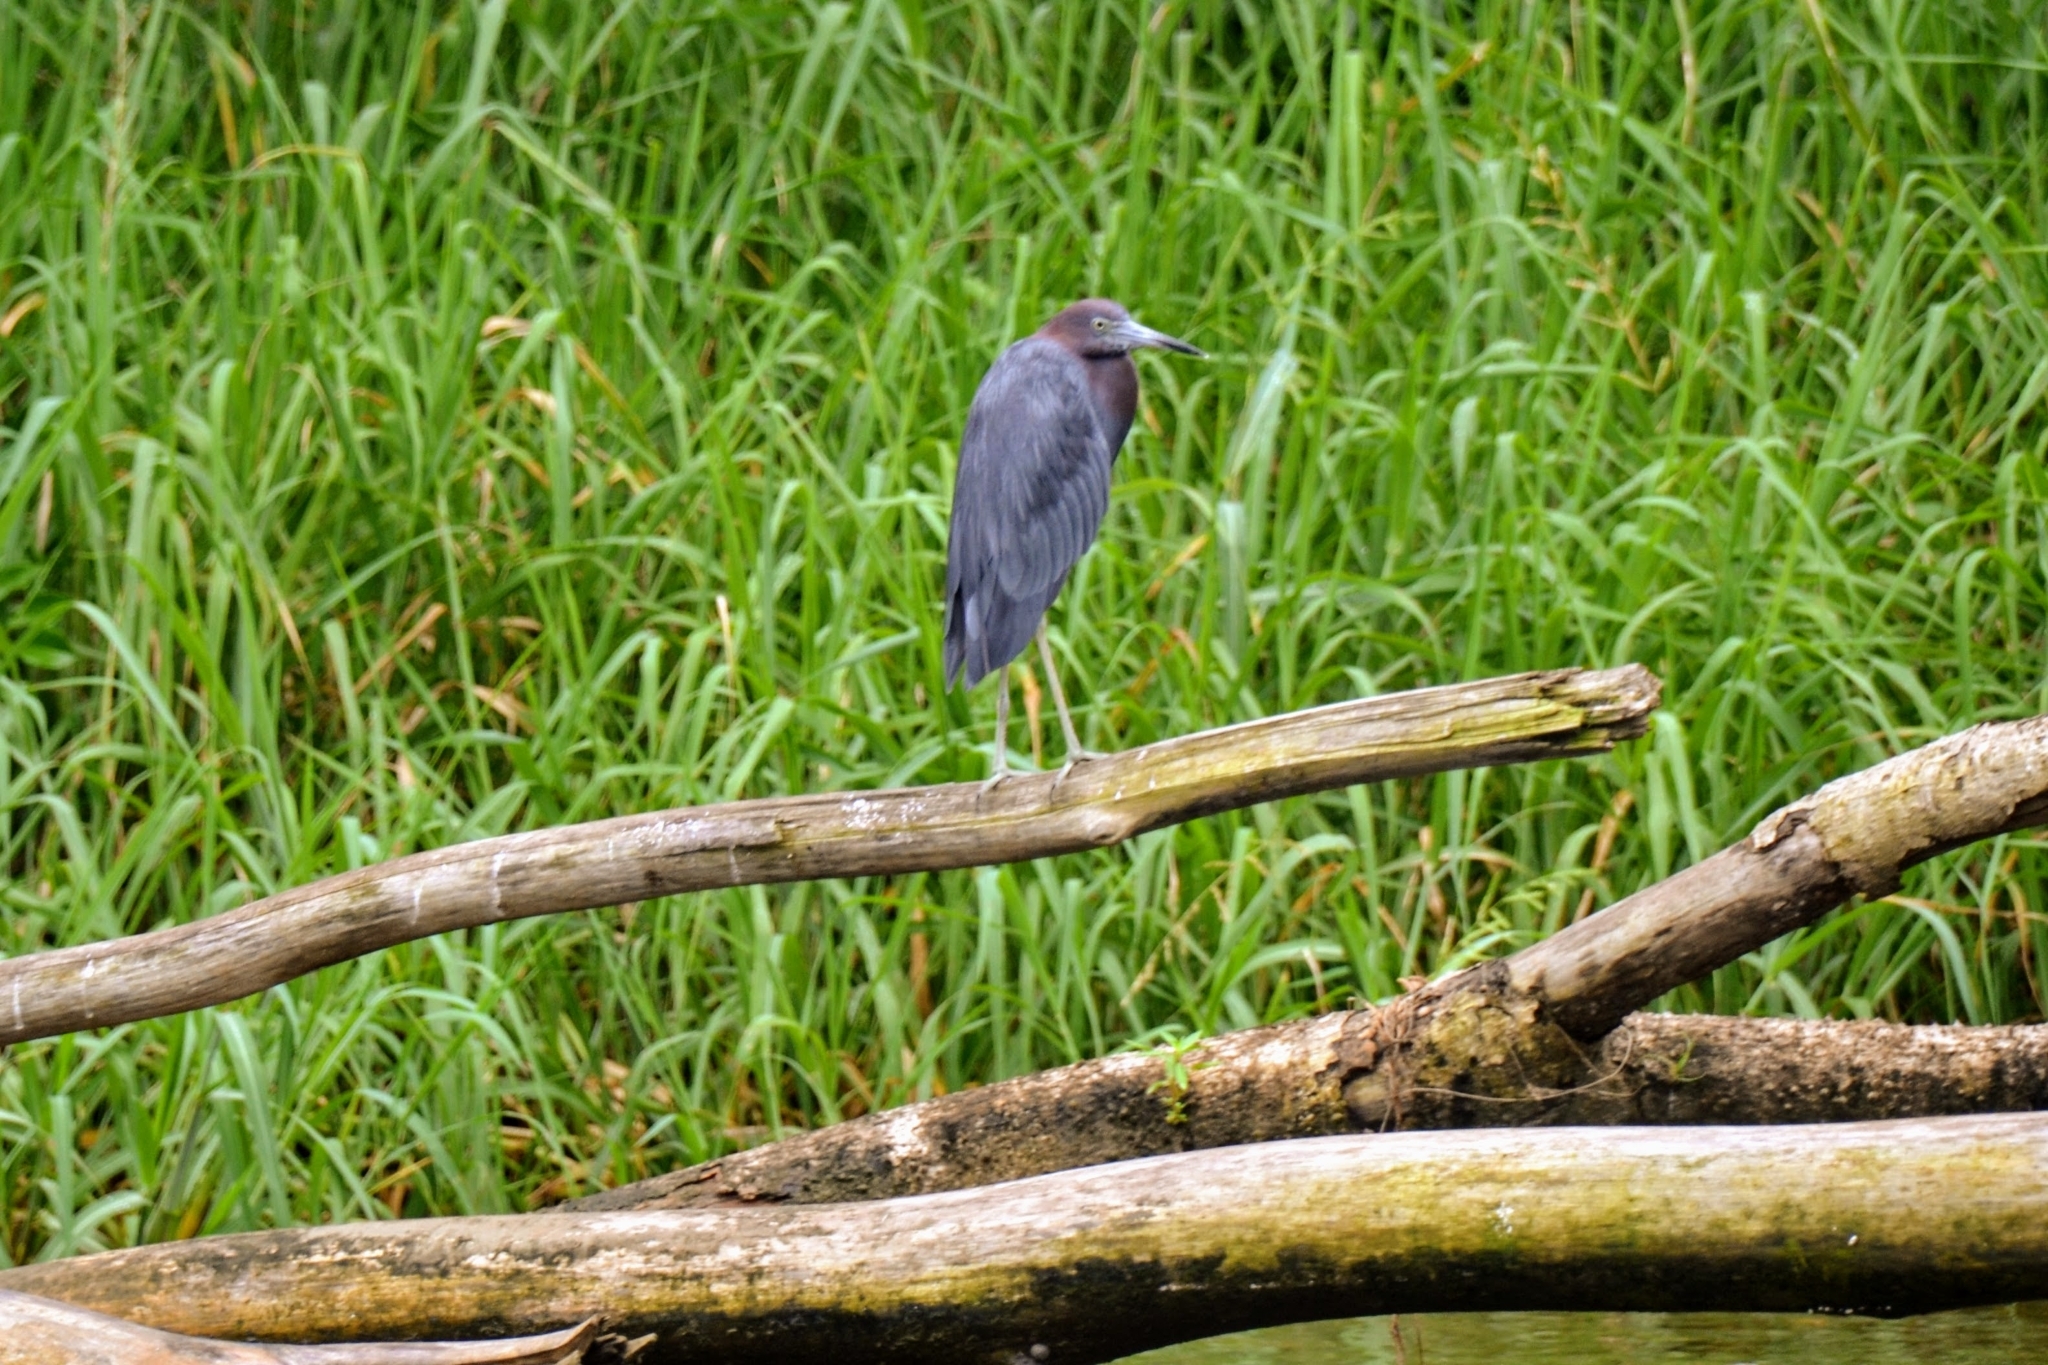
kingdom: Animalia
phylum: Chordata
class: Aves
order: Pelecaniformes
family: Ardeidae
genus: Egretta
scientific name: Egretta caerulea
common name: Little blue heron
